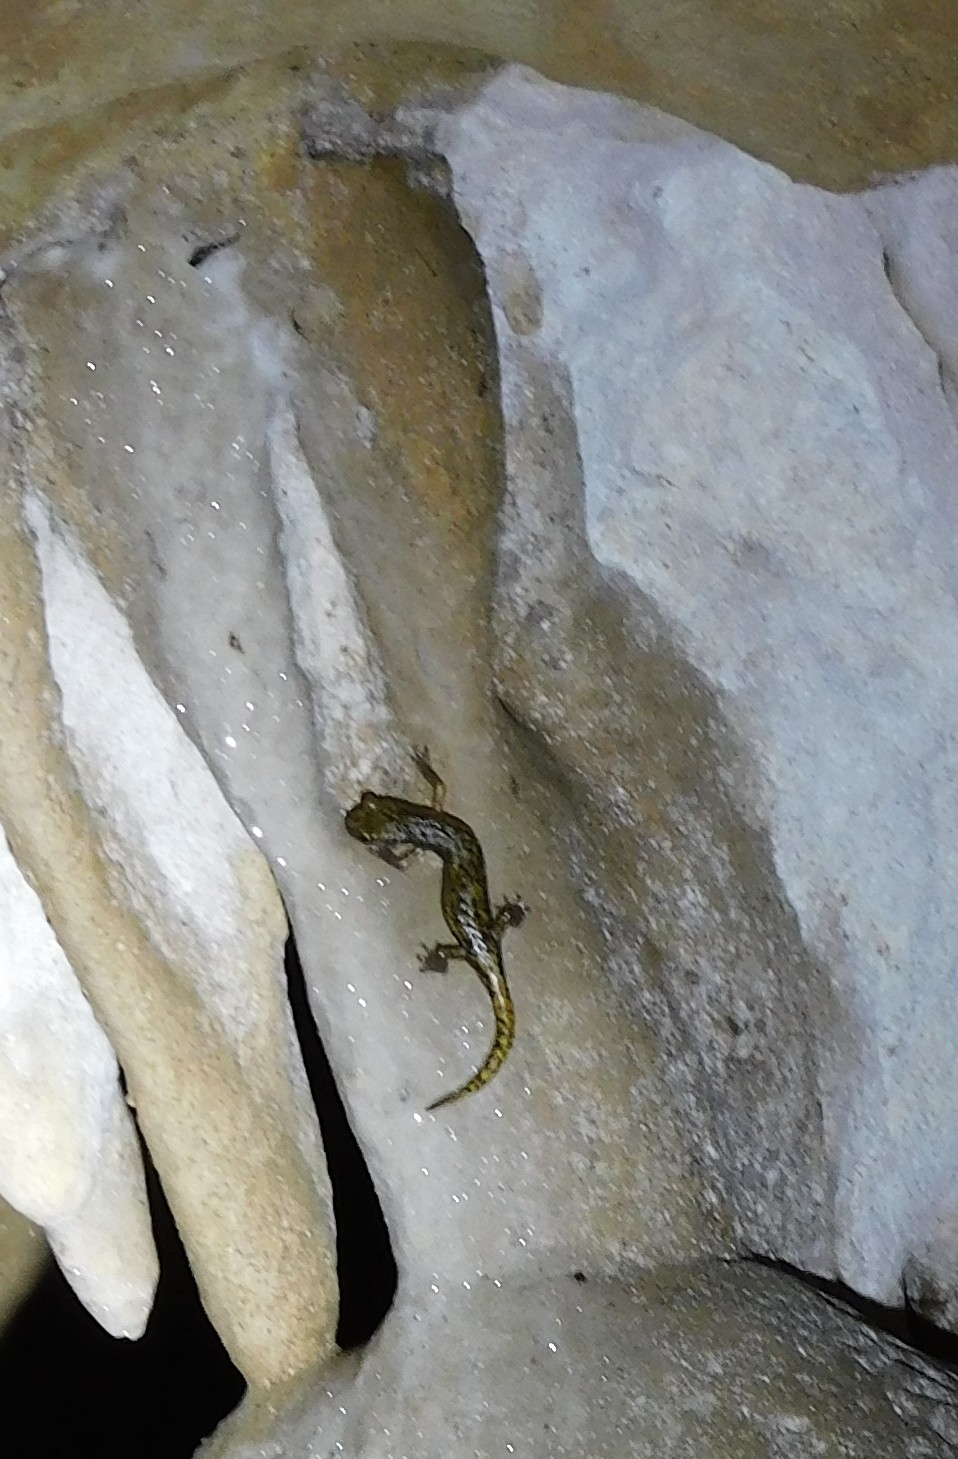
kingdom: Animalia
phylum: Chordata
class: Amphibia
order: Caudata
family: Plethodontidae
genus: Speleomantes
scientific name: Speleomantes strinatii
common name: French cave salamander
